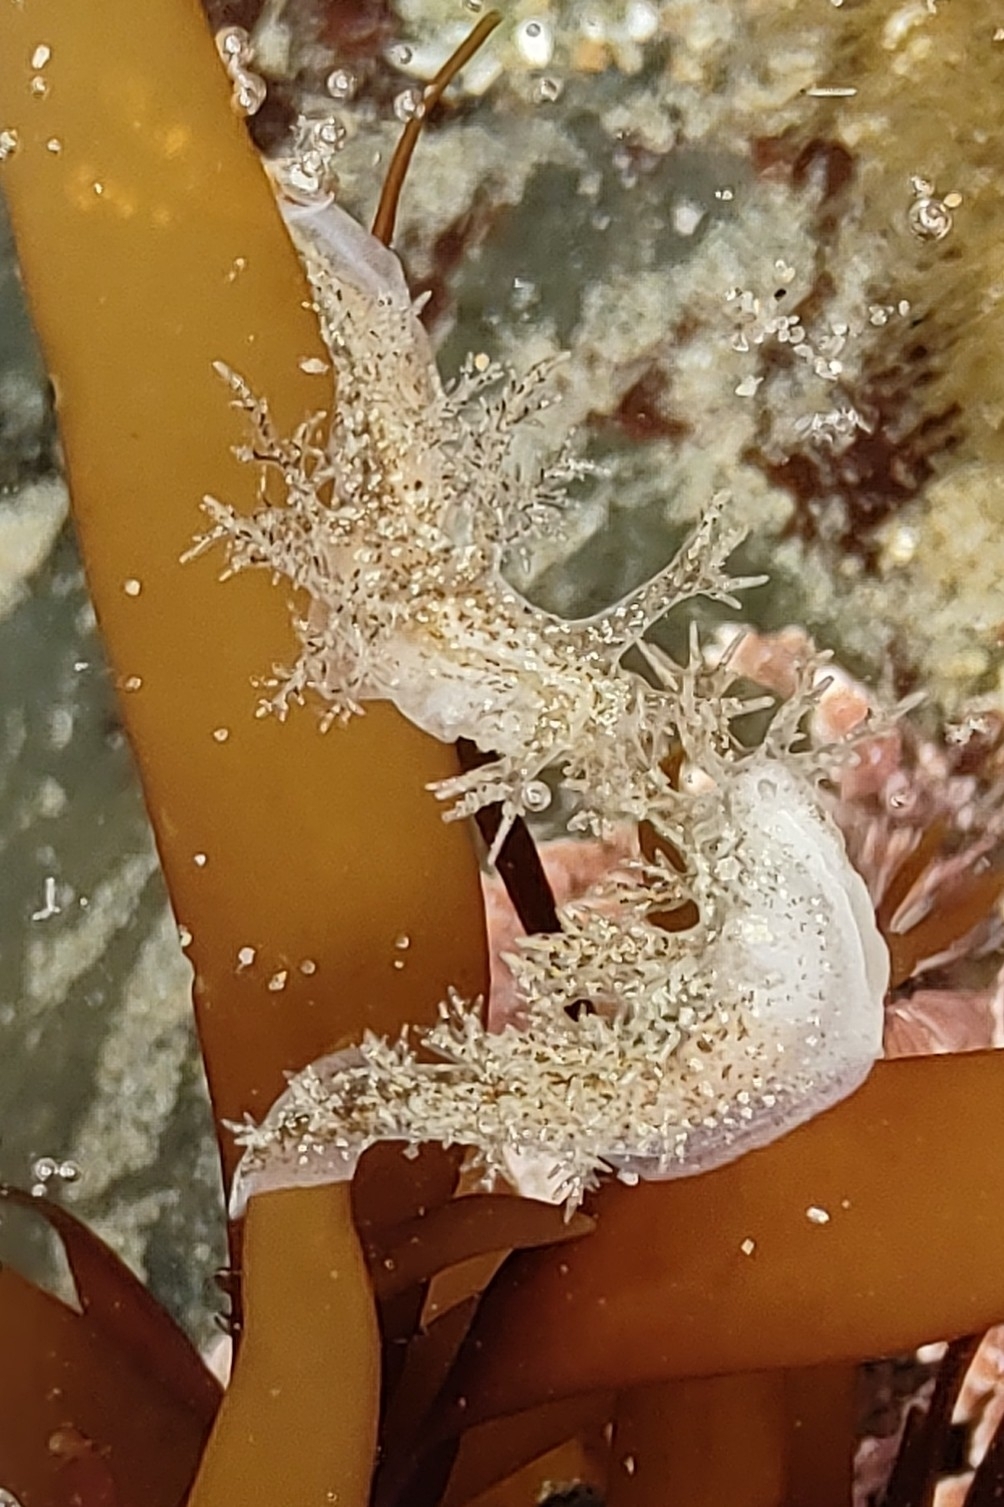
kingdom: Animalia
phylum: Mollusca
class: Gastropoda
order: Nudibranchia
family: Dendronotidae
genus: Dendronotus
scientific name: Dendronotus venustus
